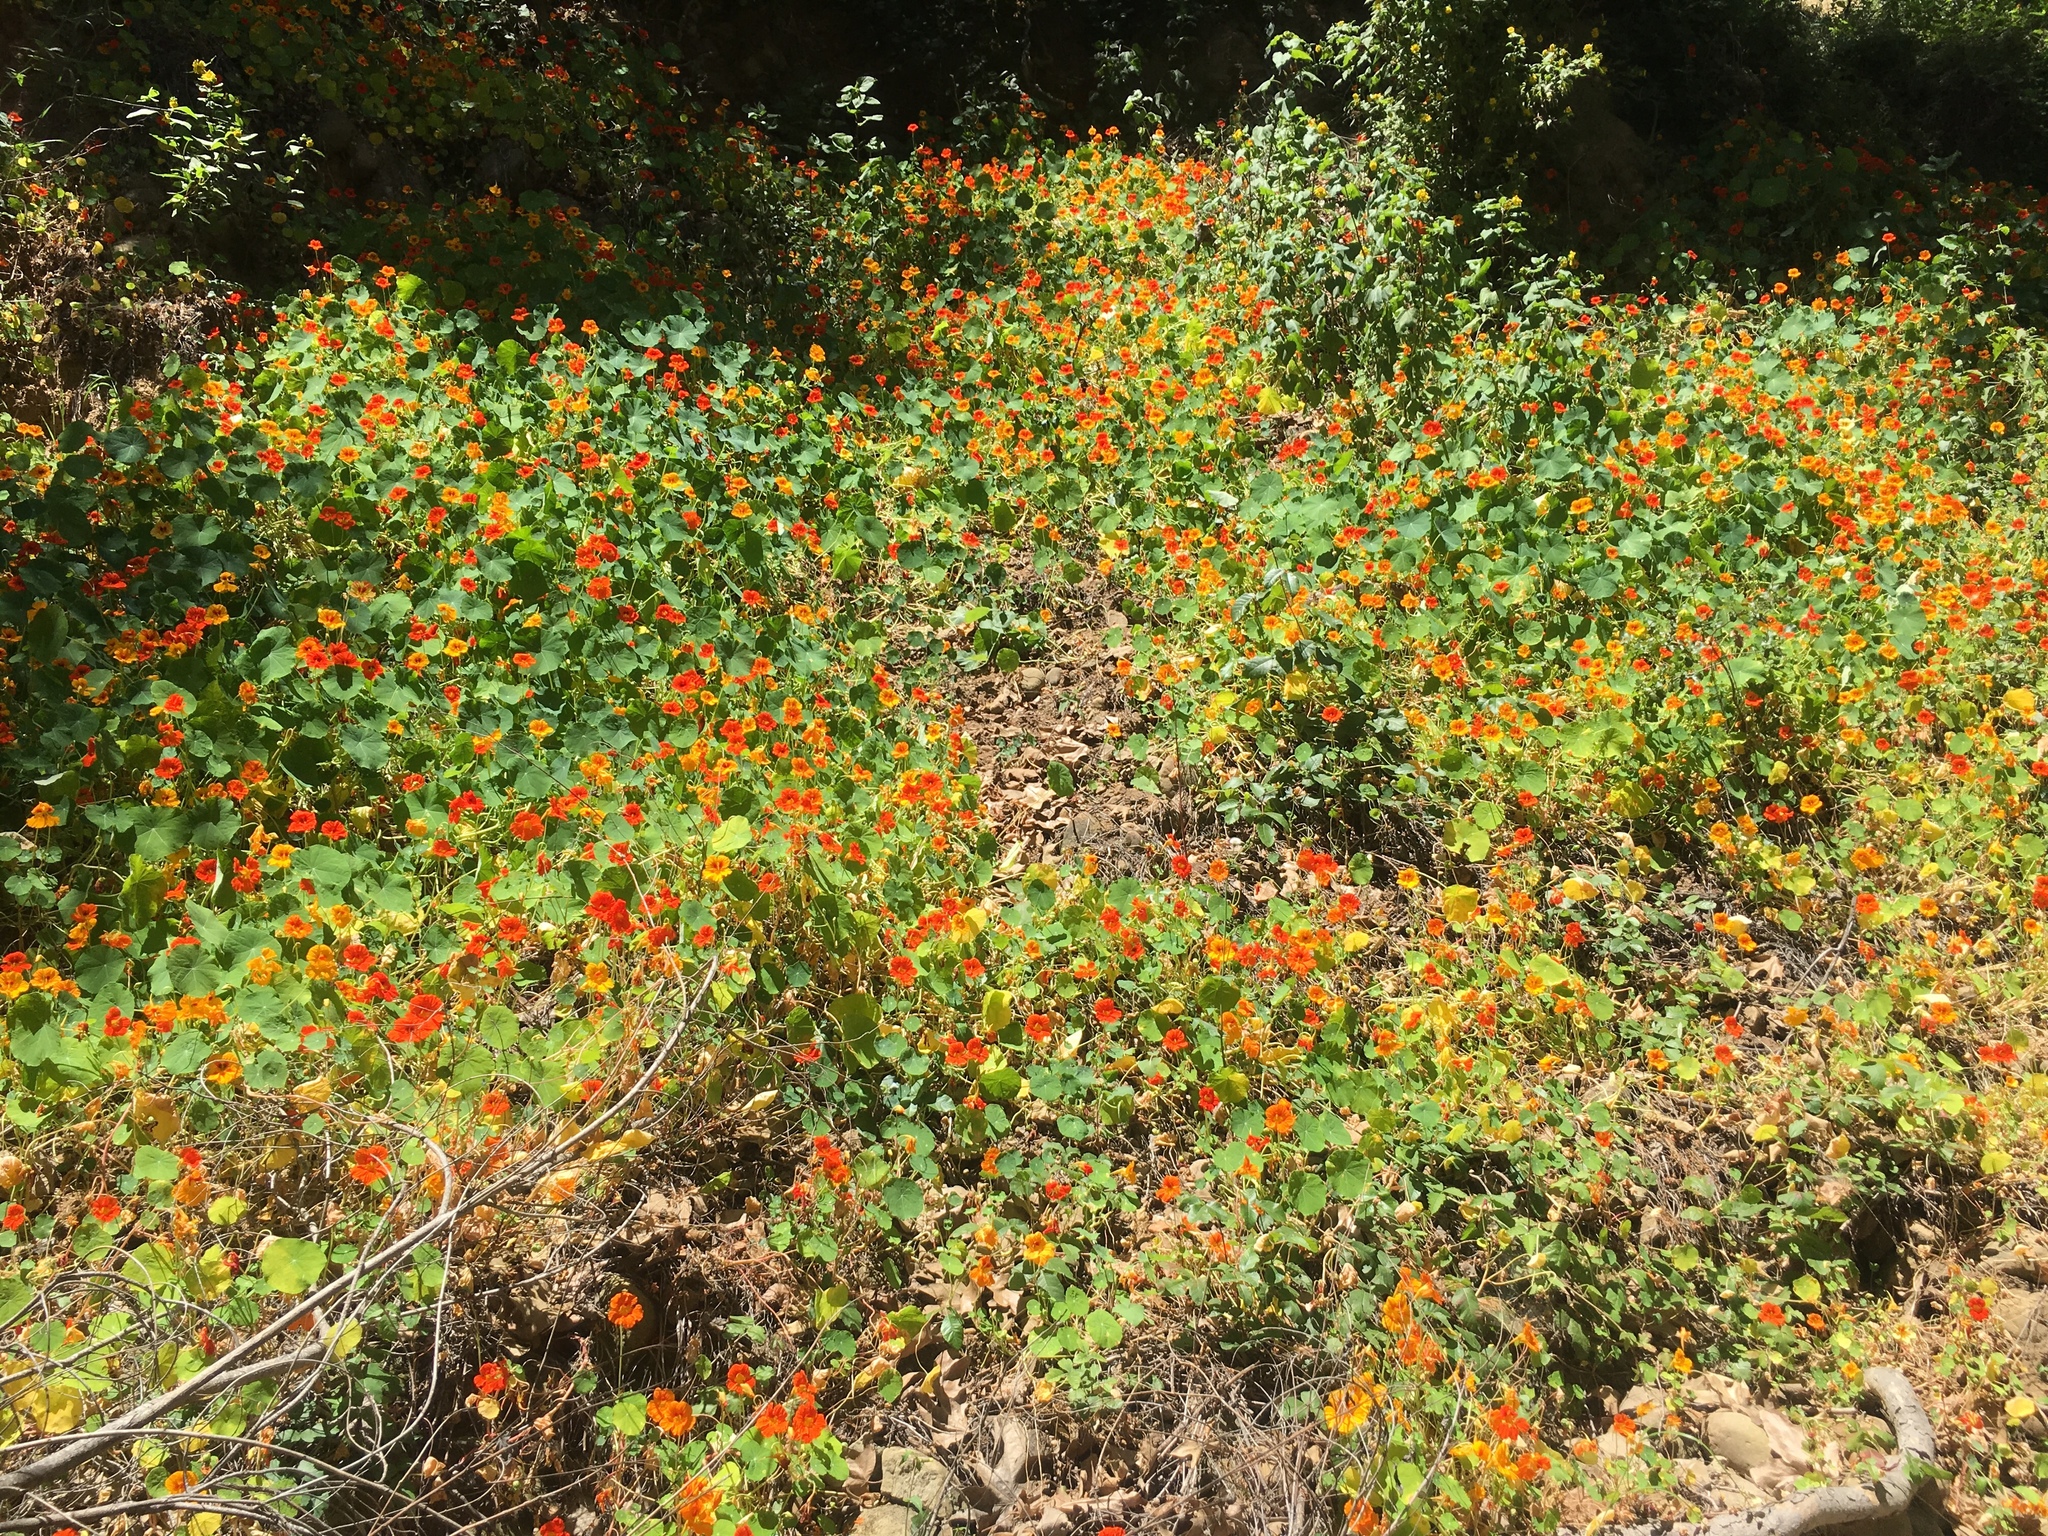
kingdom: Plantae
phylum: Tracheophyta
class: Magnoliopsida
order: Brassicales
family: Tropaeolaceae
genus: Tropaeolum
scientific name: Tropaeolum majus
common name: Nasturtium
